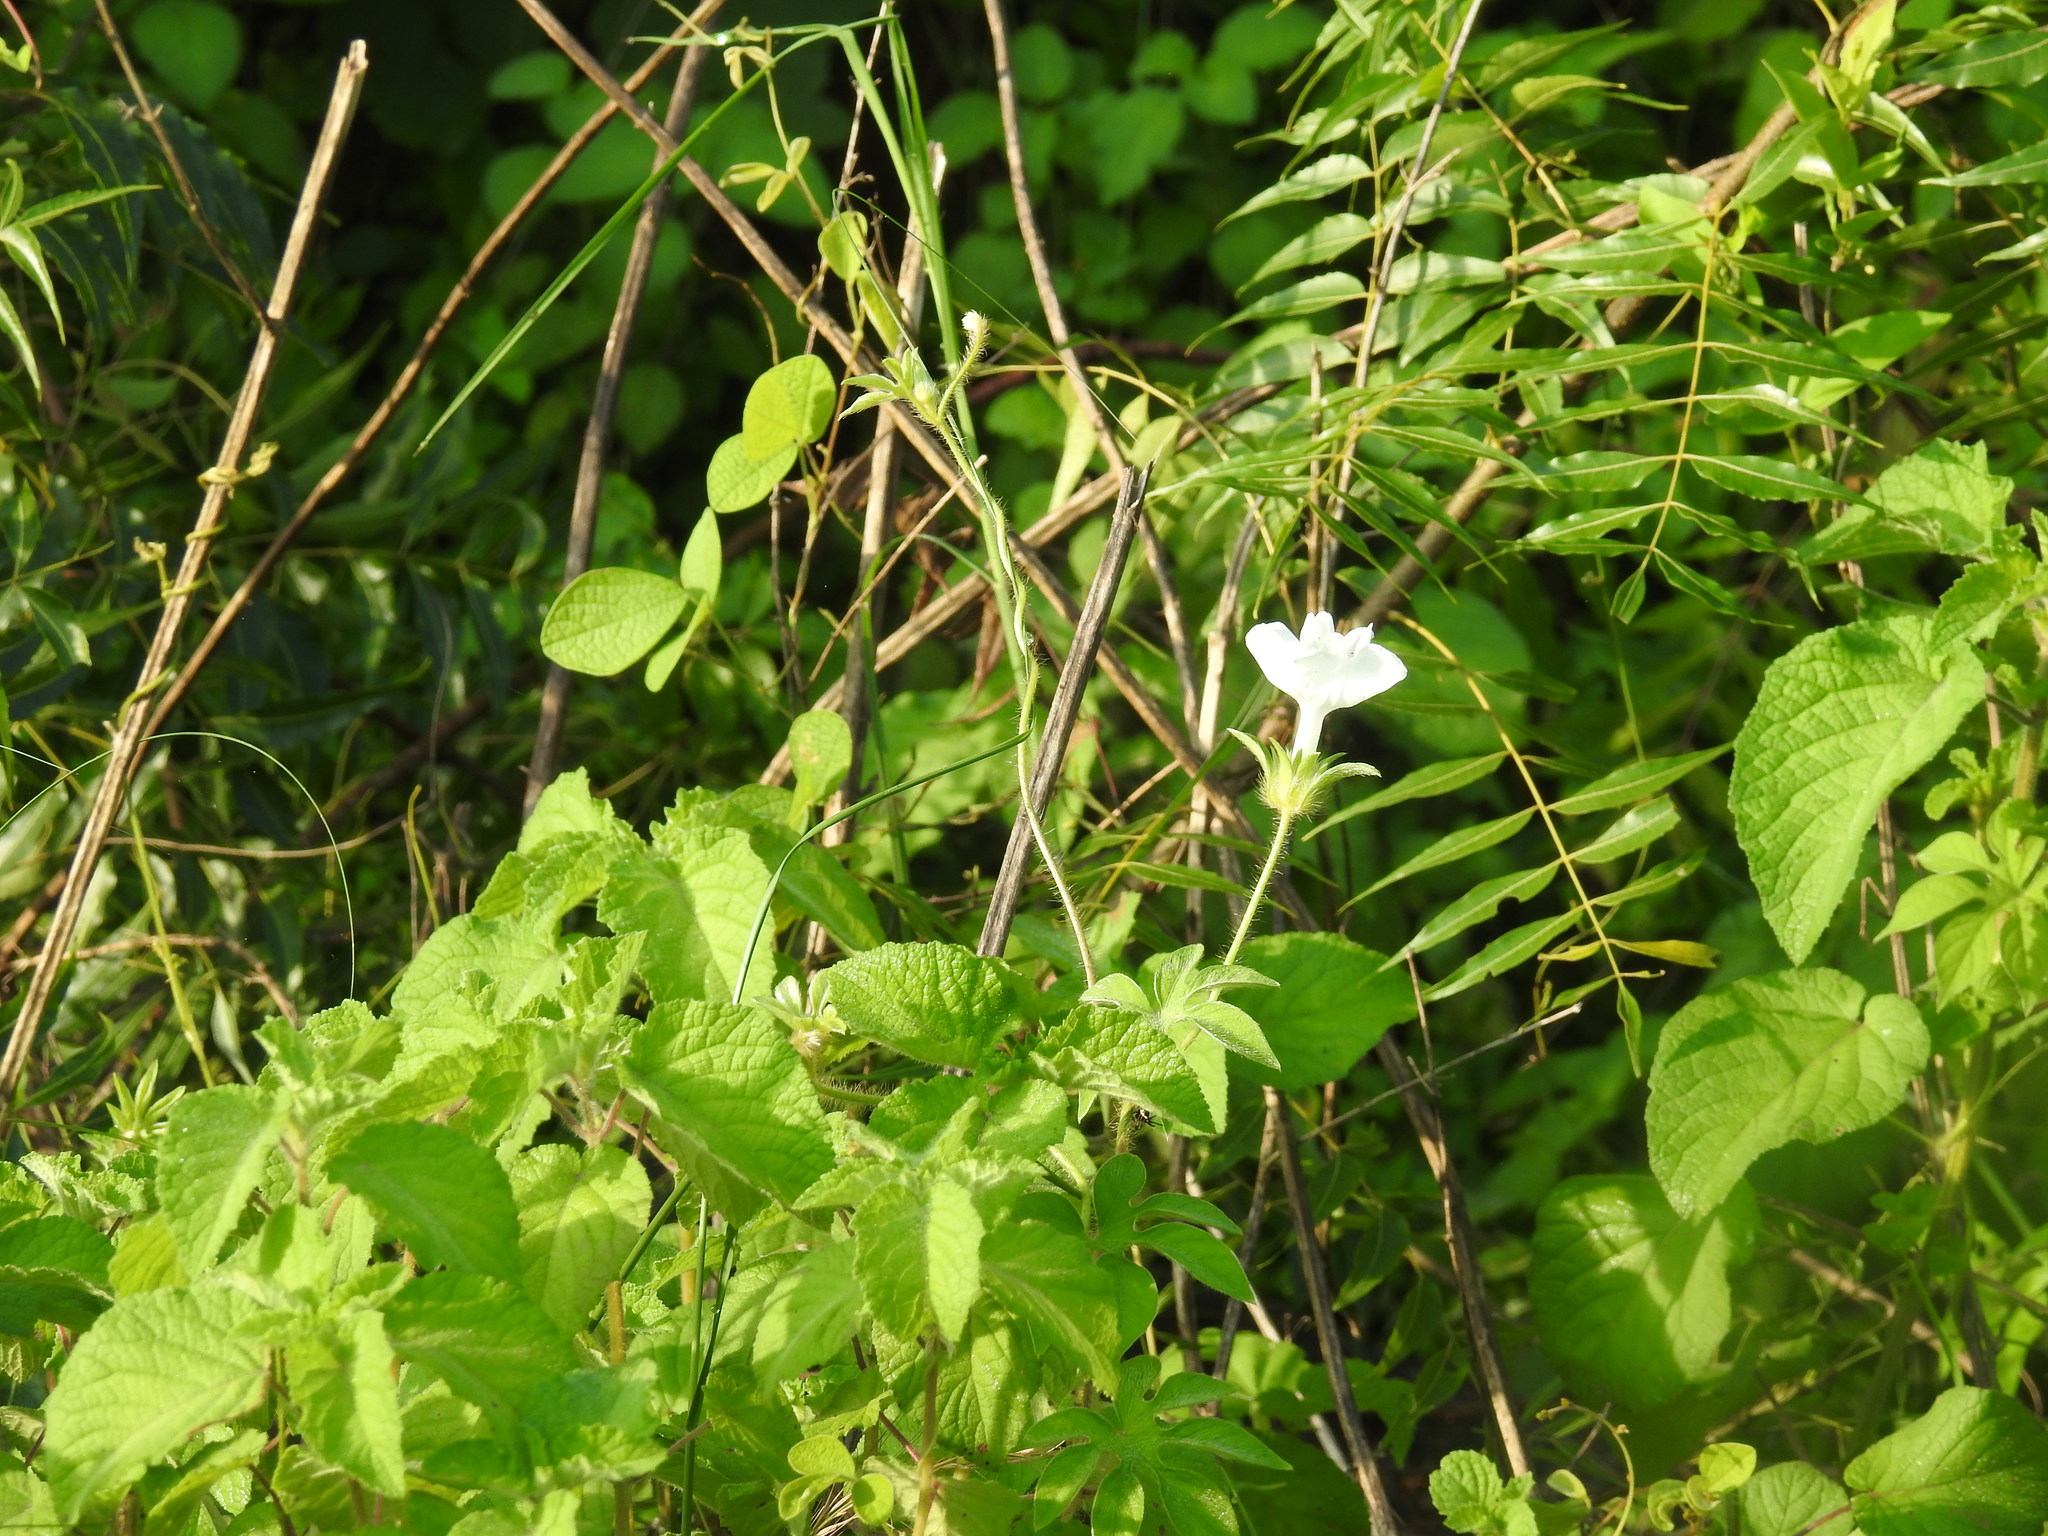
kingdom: Plantae
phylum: Tracheophyta
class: Magnoliopsida
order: Solanales
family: Convolvulaceae
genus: Ipomoea
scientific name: Ipomoea pes-tigridis
